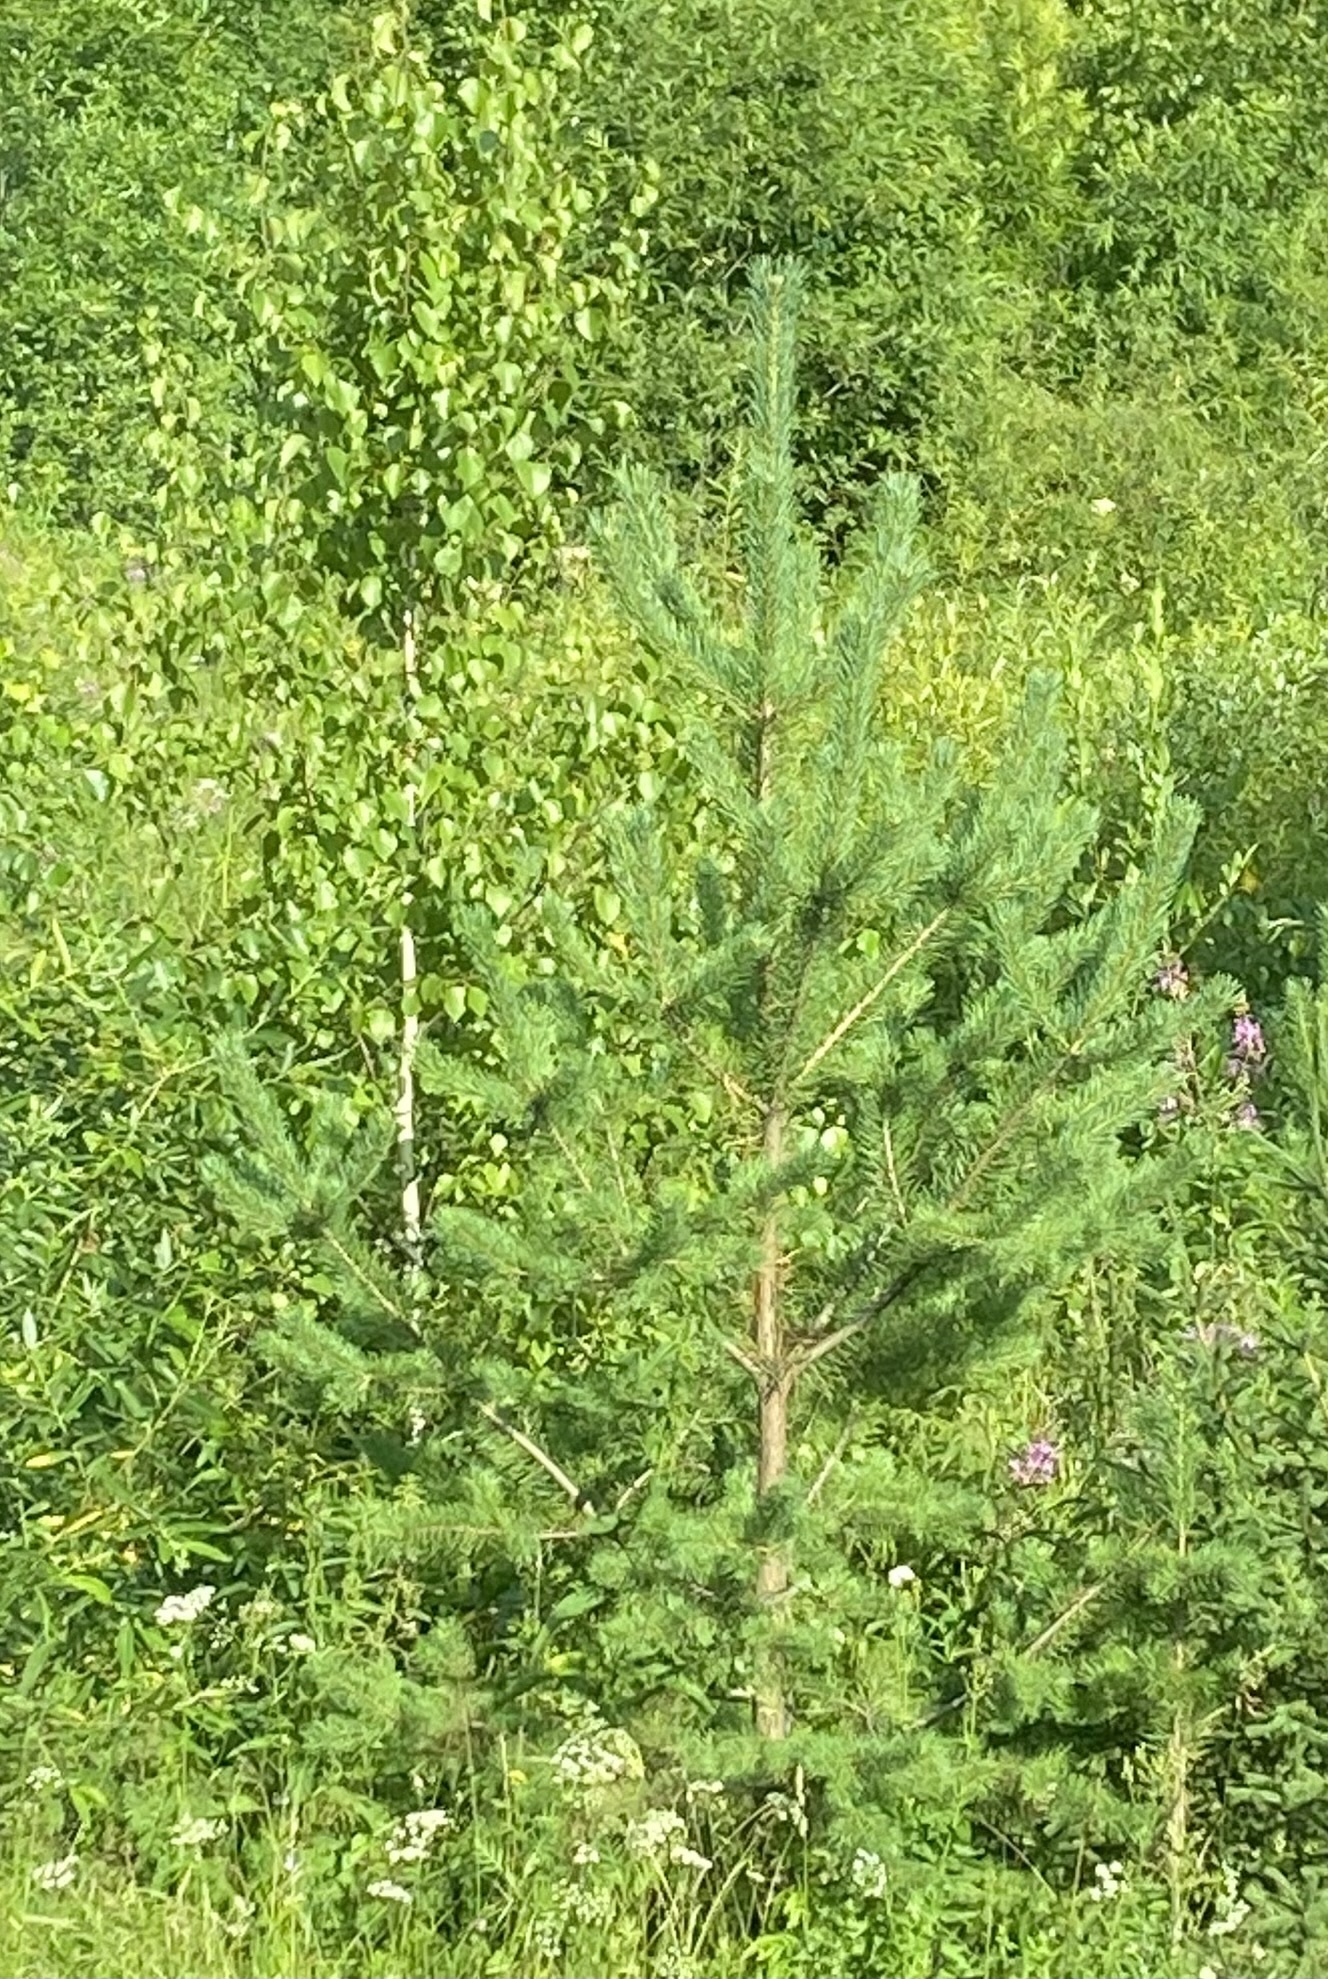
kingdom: Plantae
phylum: Tracheophyta
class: Pinopsida
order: Pinales
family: Pinaceae
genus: Pinus
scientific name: Pinus sylvestris
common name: Scots pine
